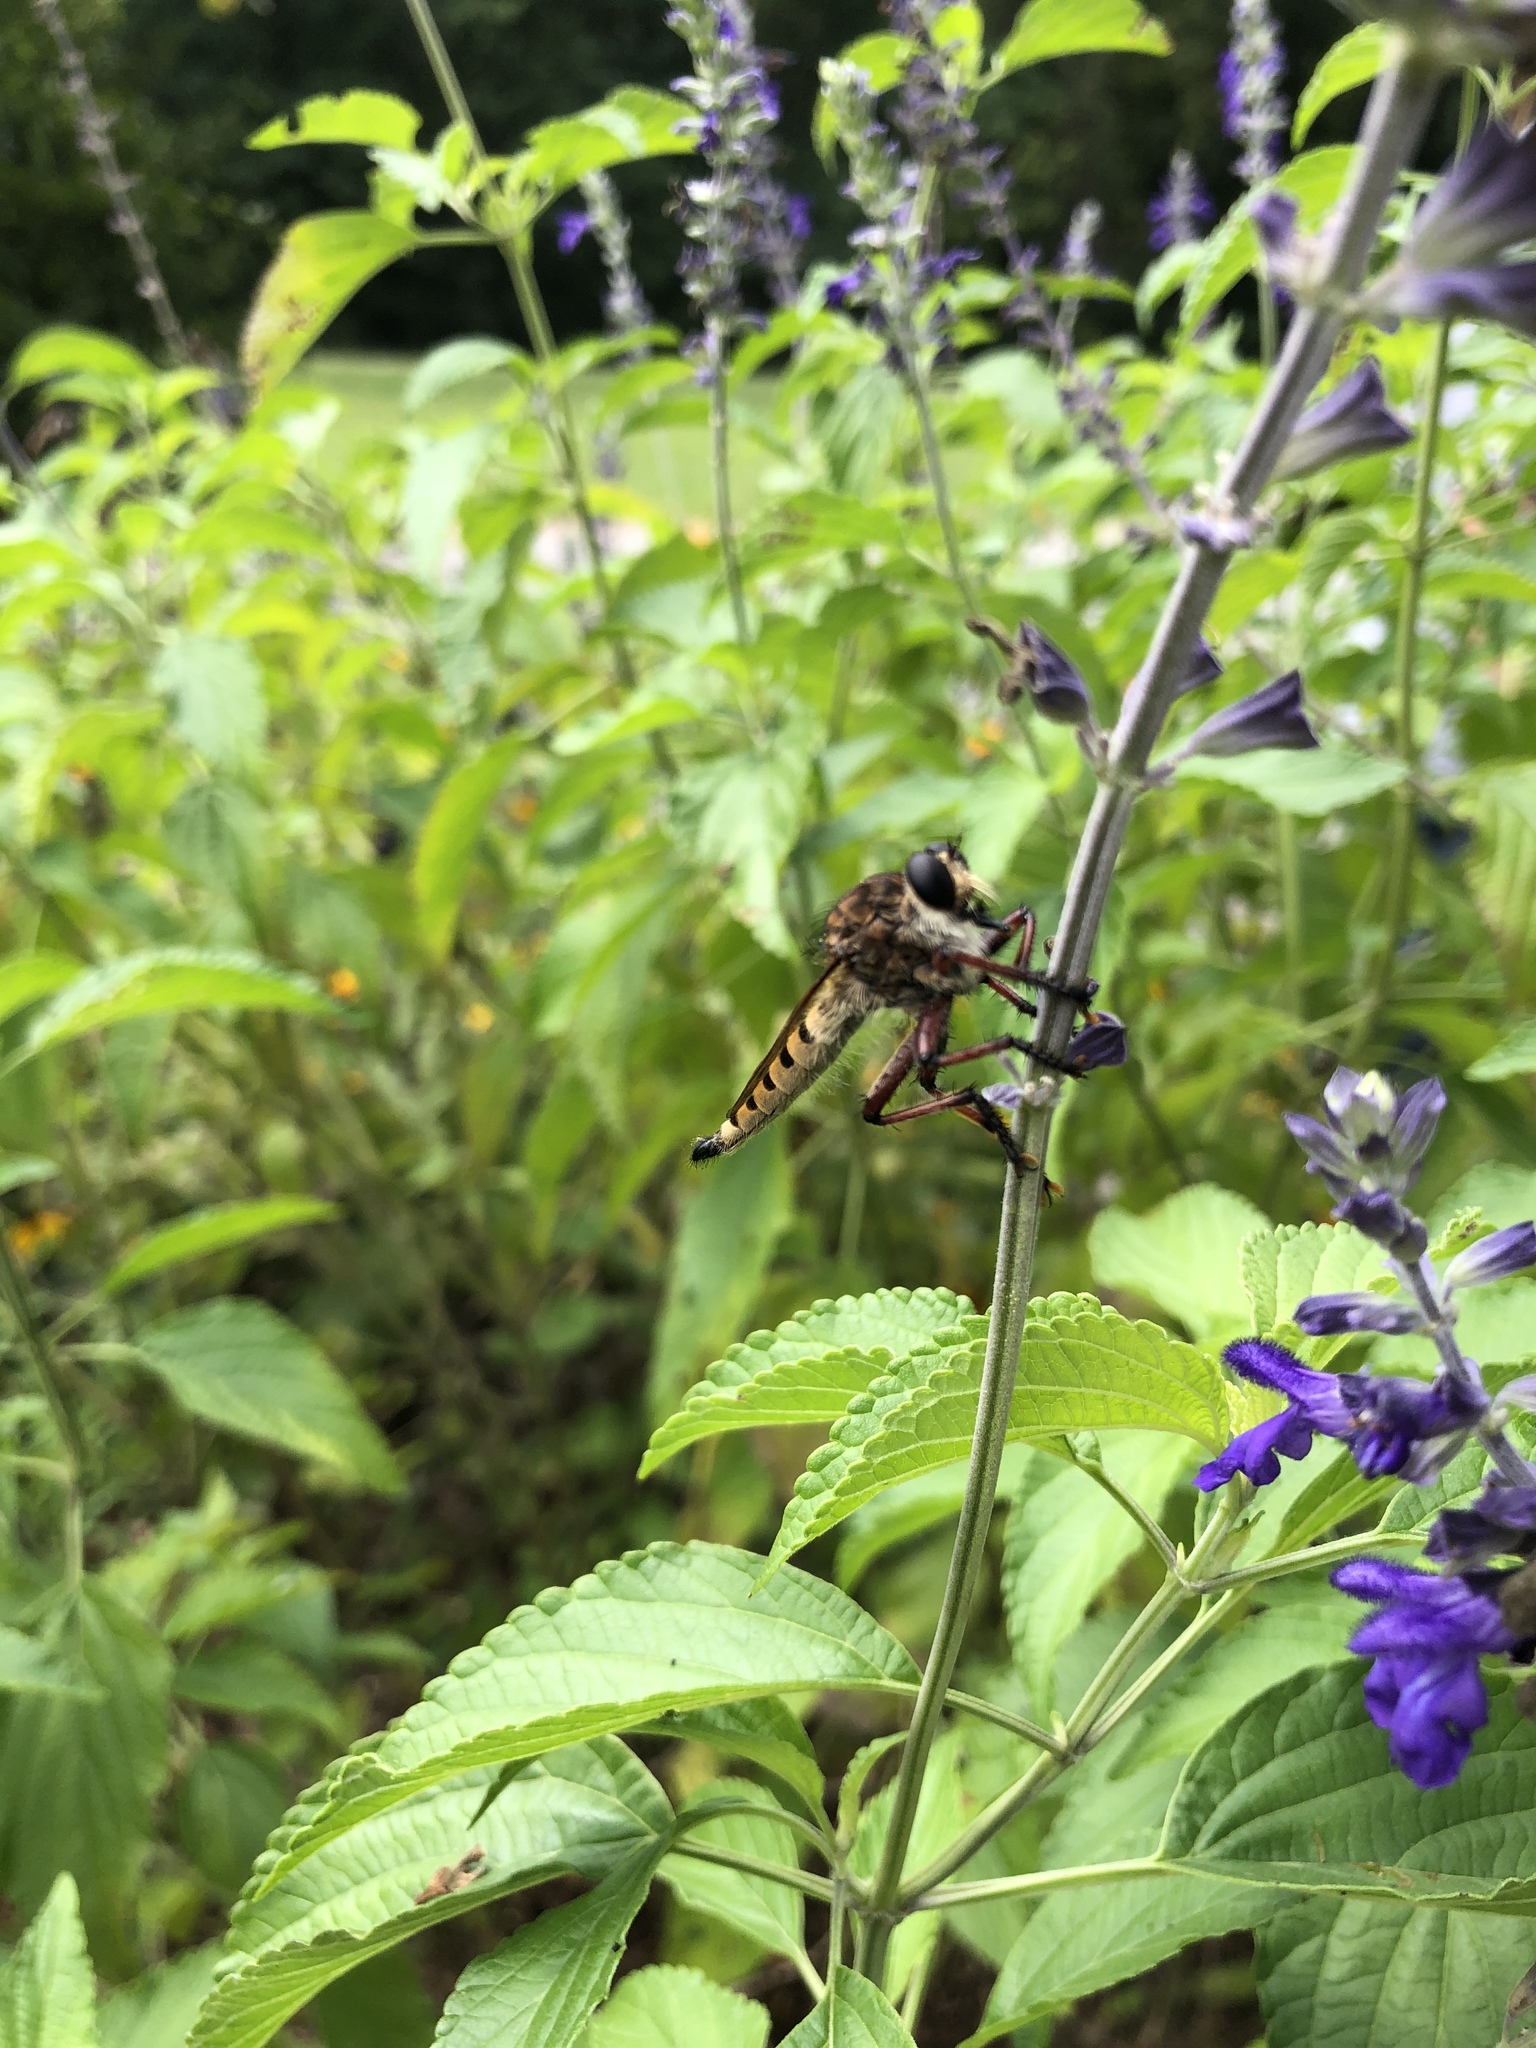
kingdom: Animalia
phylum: Arthropoda
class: Insecta
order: Diptera
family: Asilidae
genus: Promachus
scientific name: Promachus hinei
